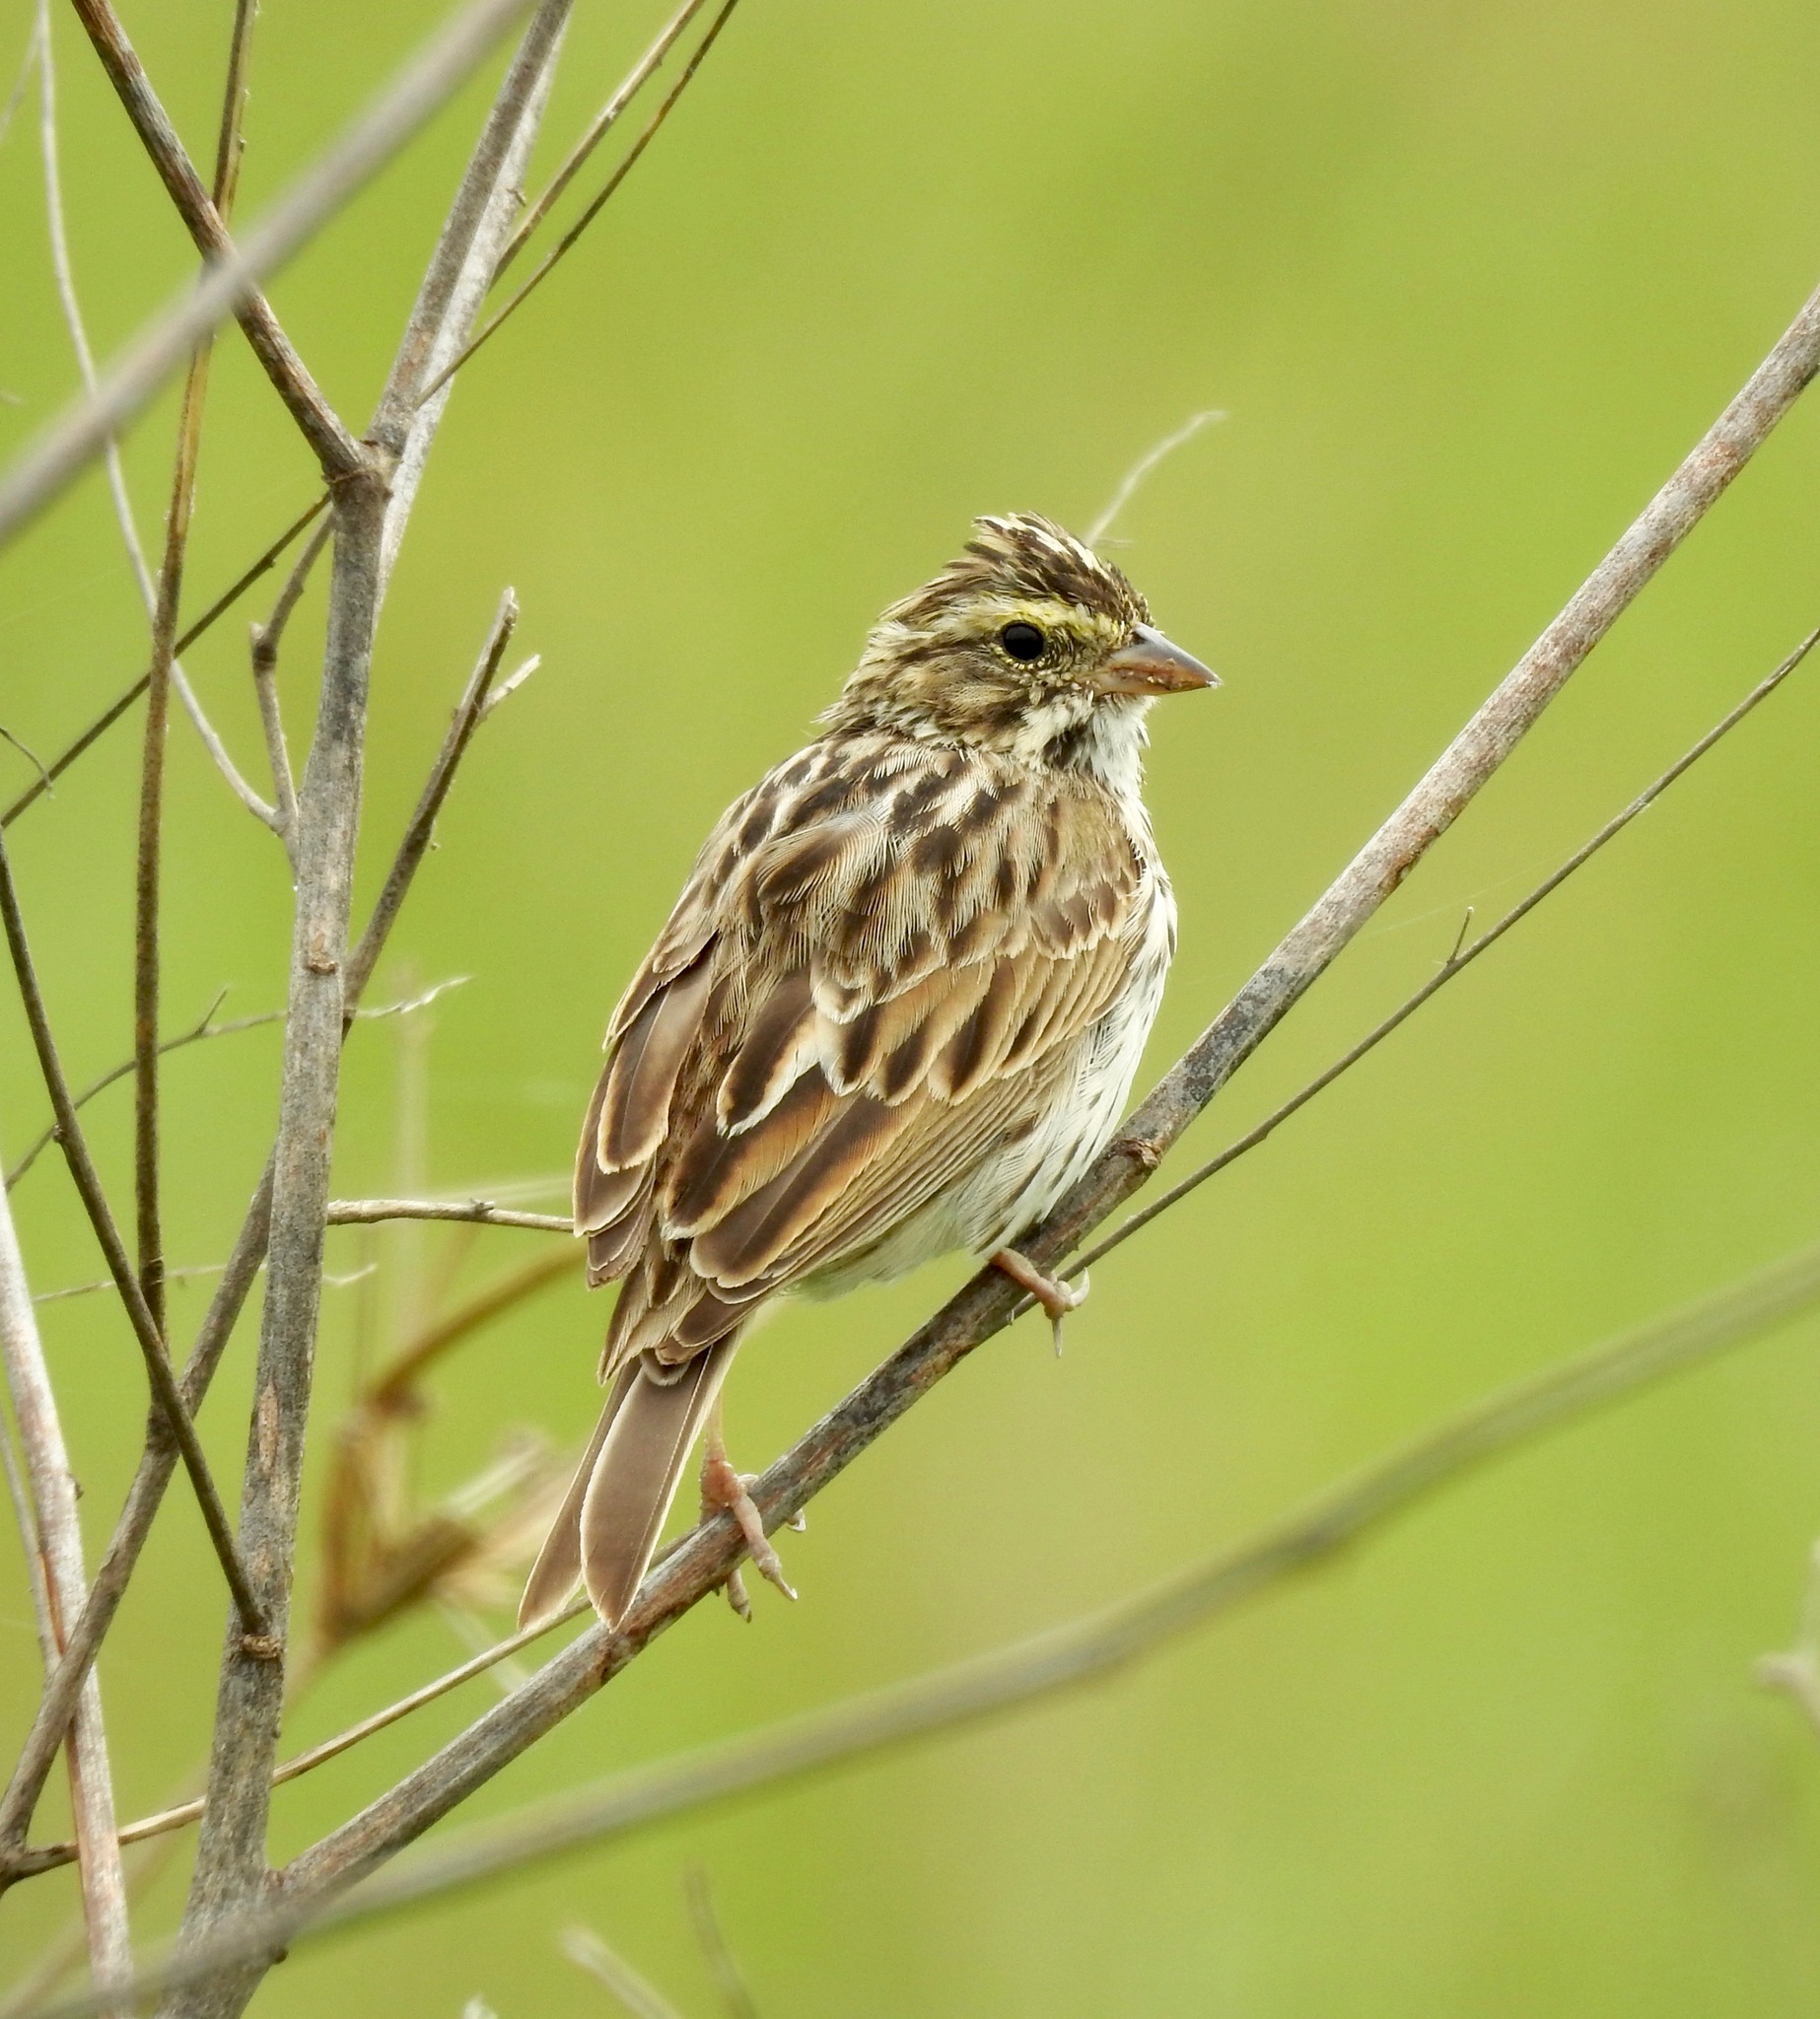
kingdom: Animalia
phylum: Chordata
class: Aves
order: Passeriformes
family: Passerellidae
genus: Passerculus
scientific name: Passerculus sandwichensis
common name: Savannah sparrow
